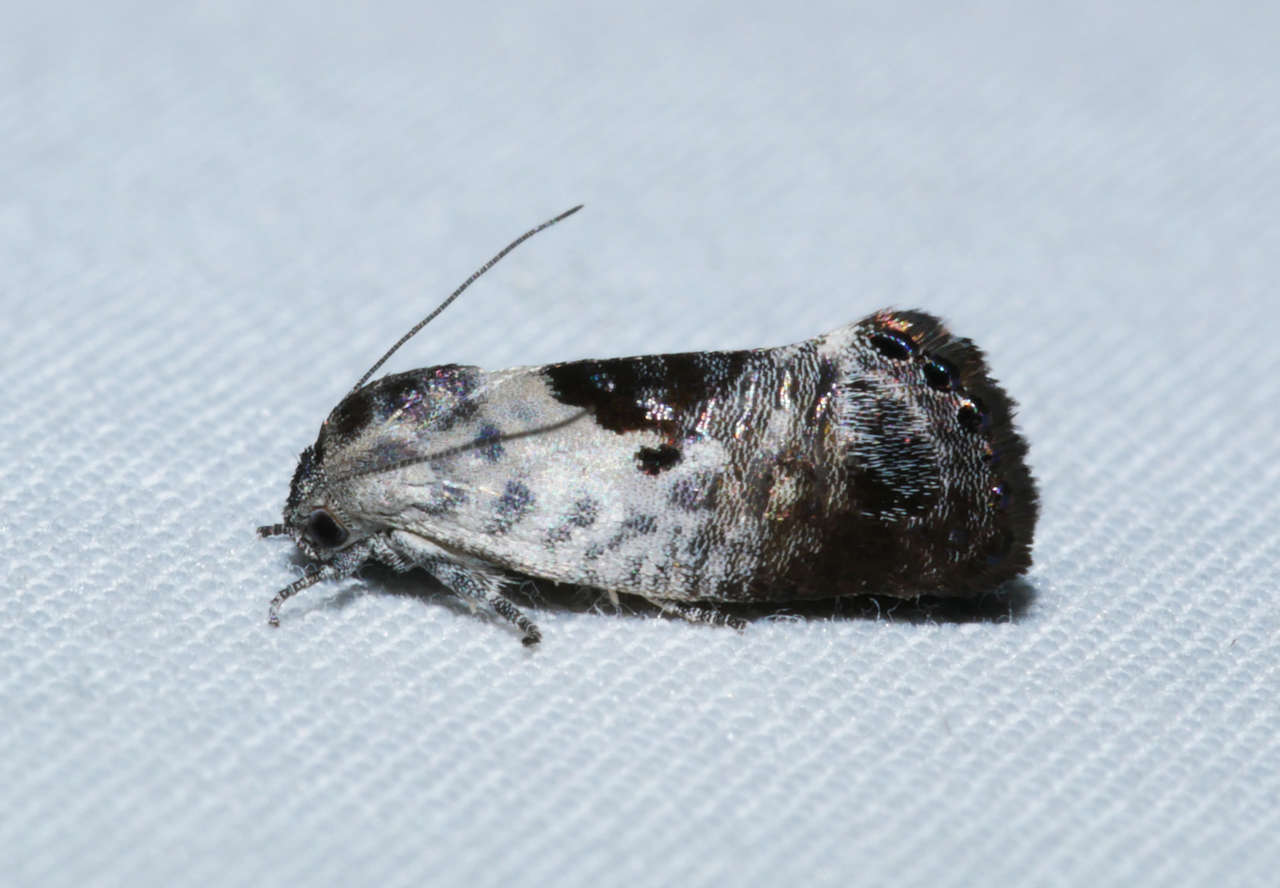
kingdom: Animalia
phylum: Arthropoda
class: Insecta
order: Lepidoptera
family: Depressariidae
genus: Eupselia
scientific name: Eupselia carpocapsella
